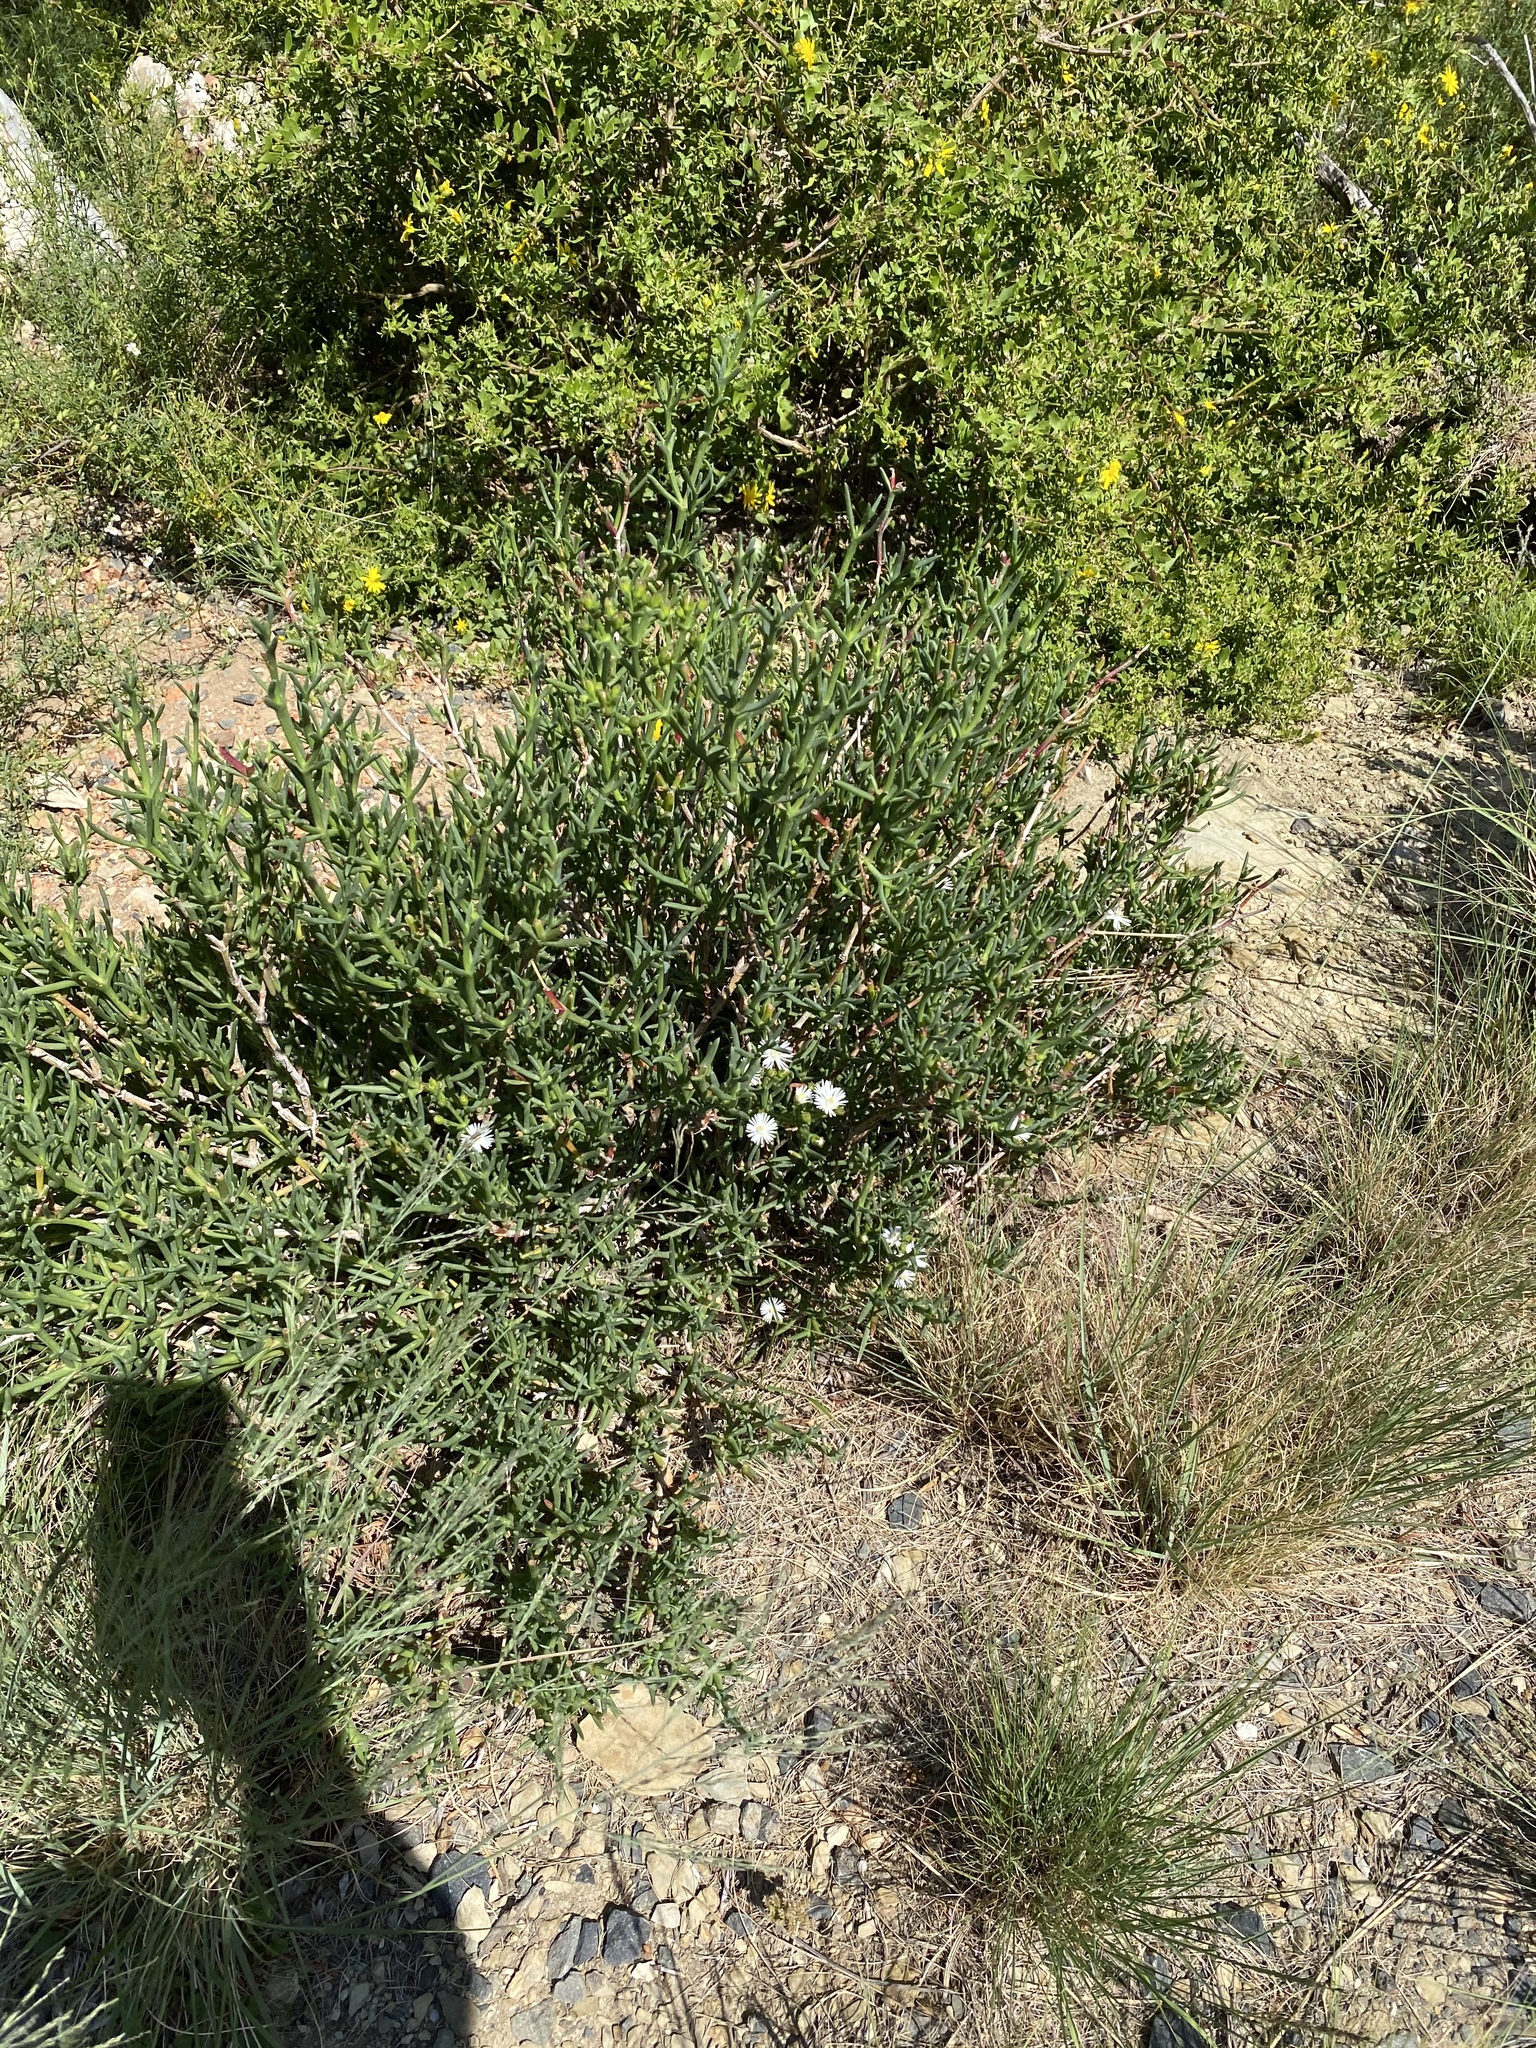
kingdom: Plantae
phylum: Tracheophyta
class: Magnoliopsida
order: Caryophyllales
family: Aizoaceae
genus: Ruschia
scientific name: Ruschia multiflora
